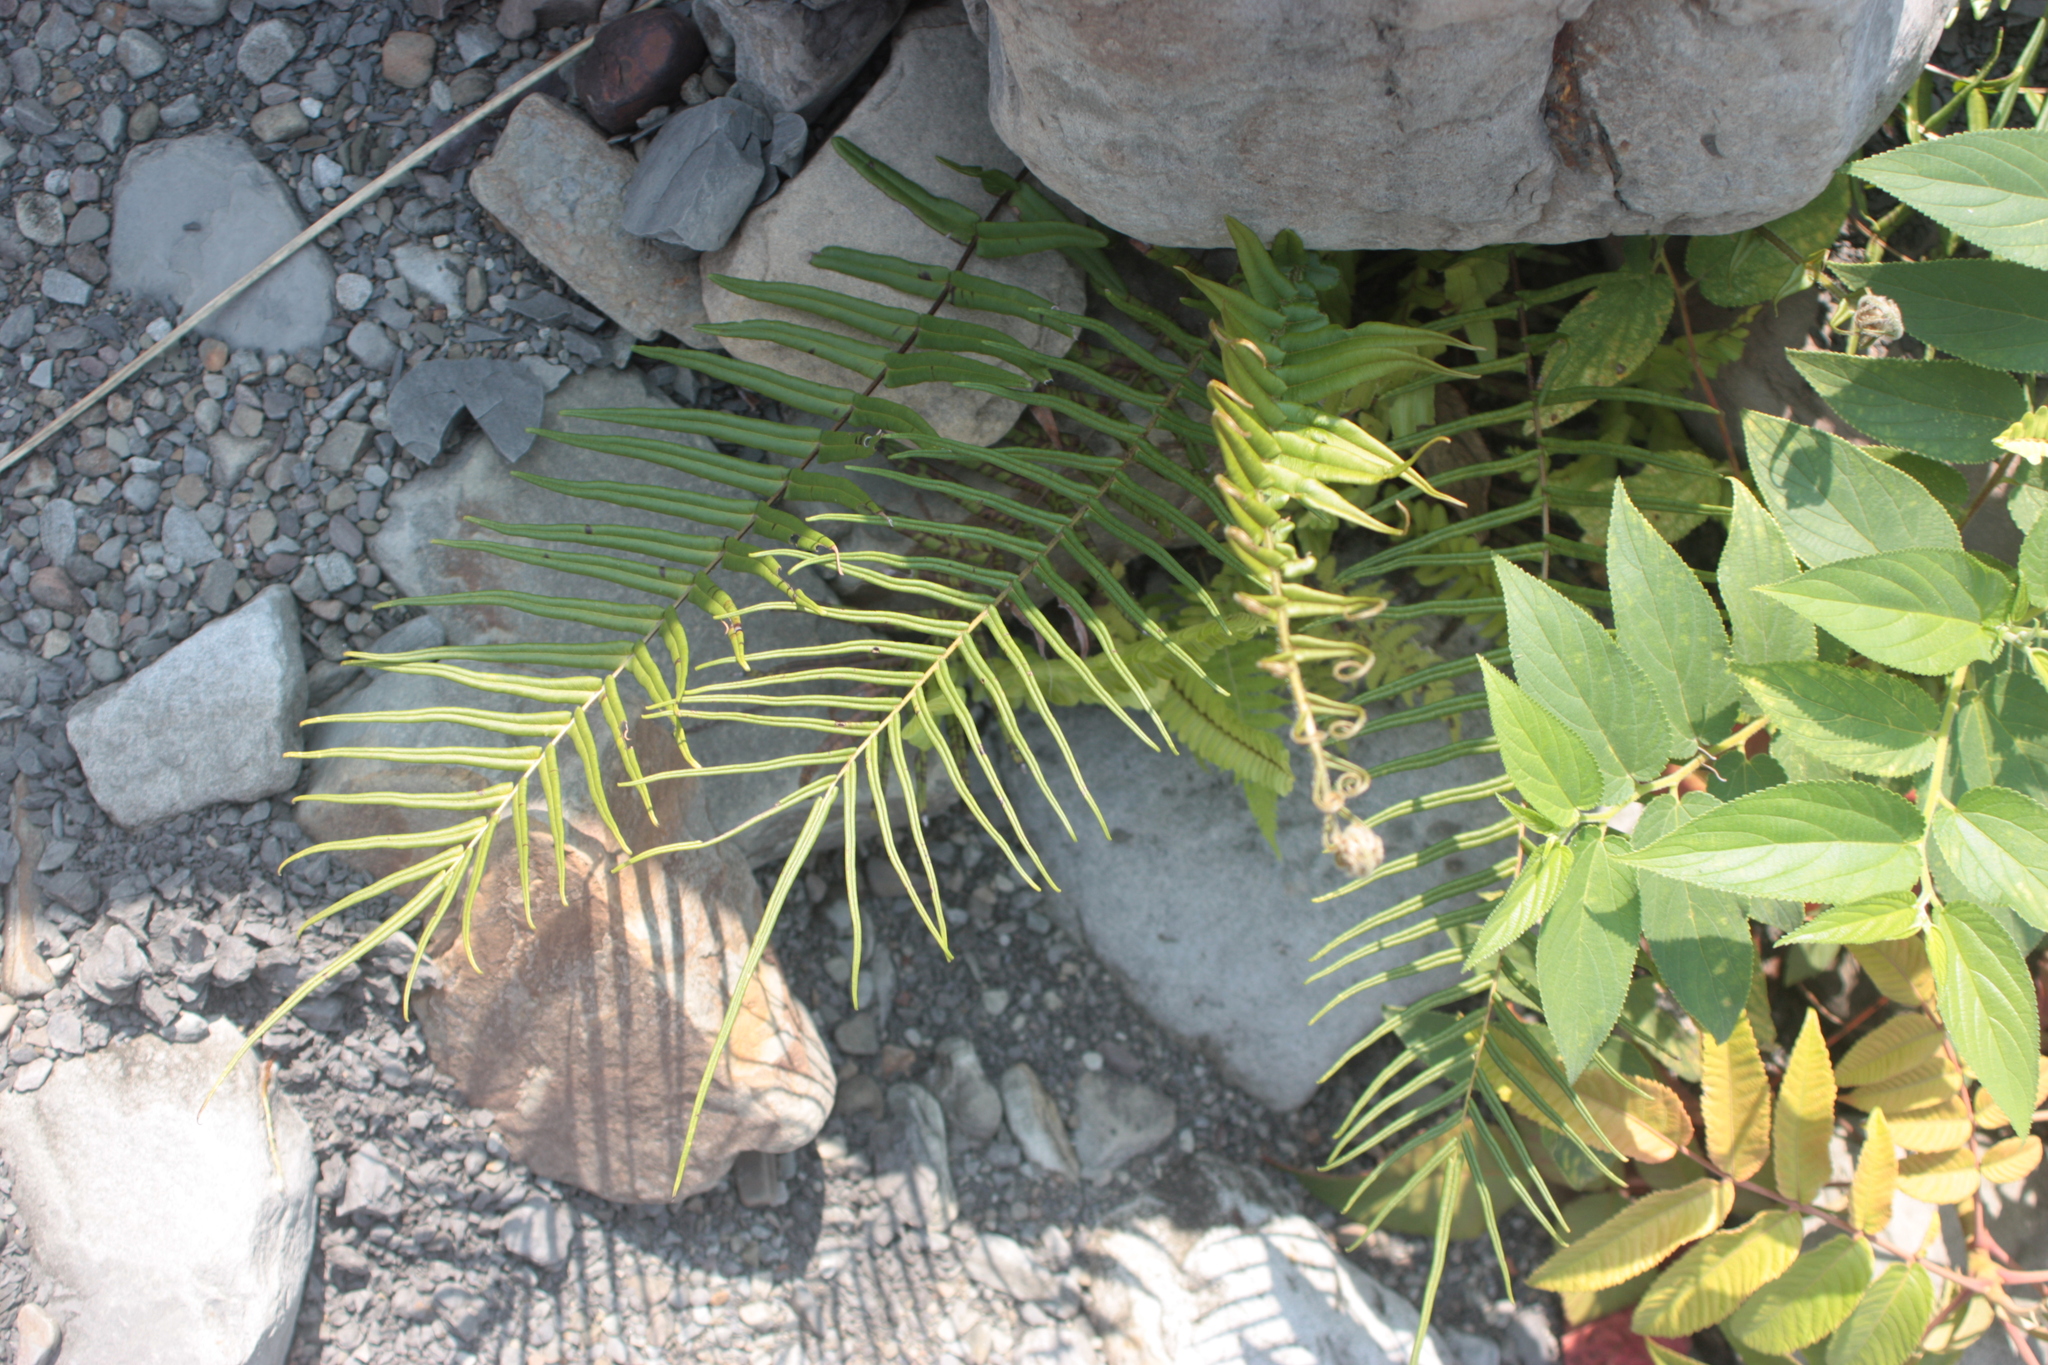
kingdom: Plantae
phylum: Tracheophyta
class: Polypodiopsida
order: Polypodiales
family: Pteridaceae
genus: Pteris
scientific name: Pteris vittata
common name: Ladder brake
